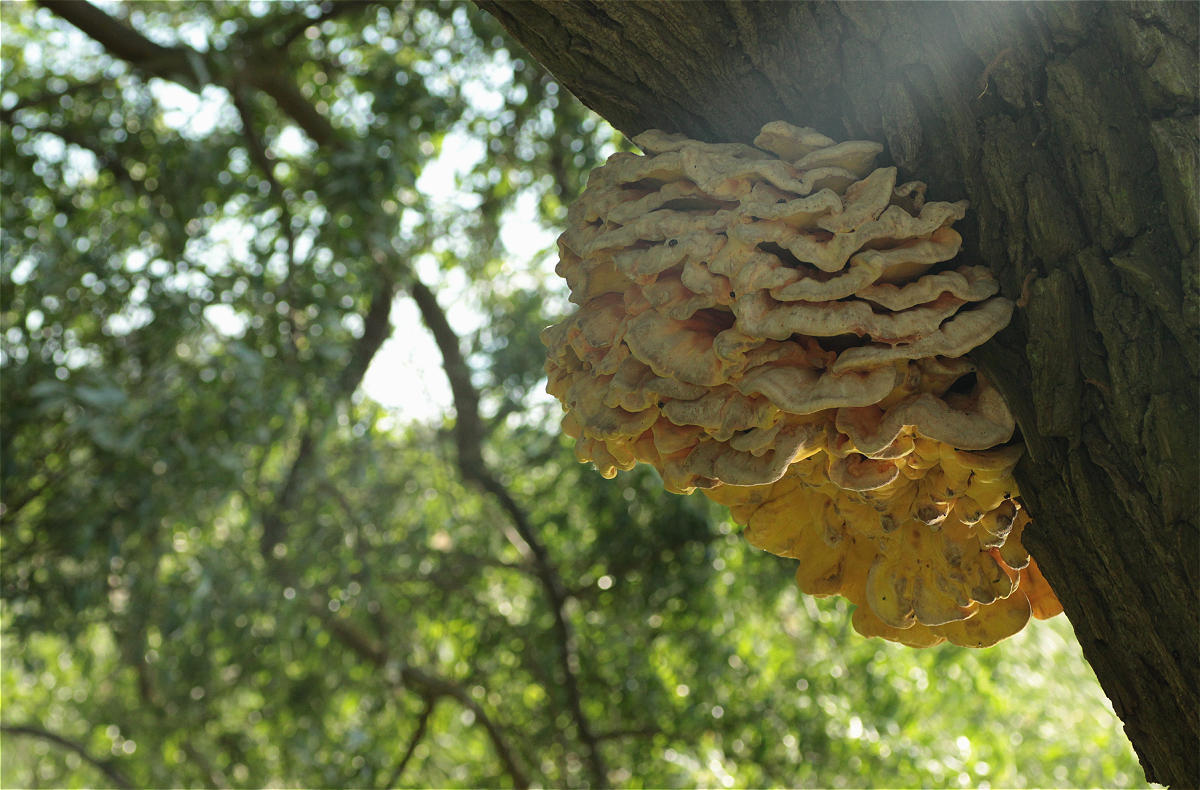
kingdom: Fungi
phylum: Basidiomycota
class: Agaricomycetes
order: Polyporales
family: Laetiporaceae
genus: Laetiporus
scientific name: Laetiporus sulphureus
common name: Chicken of the woods
